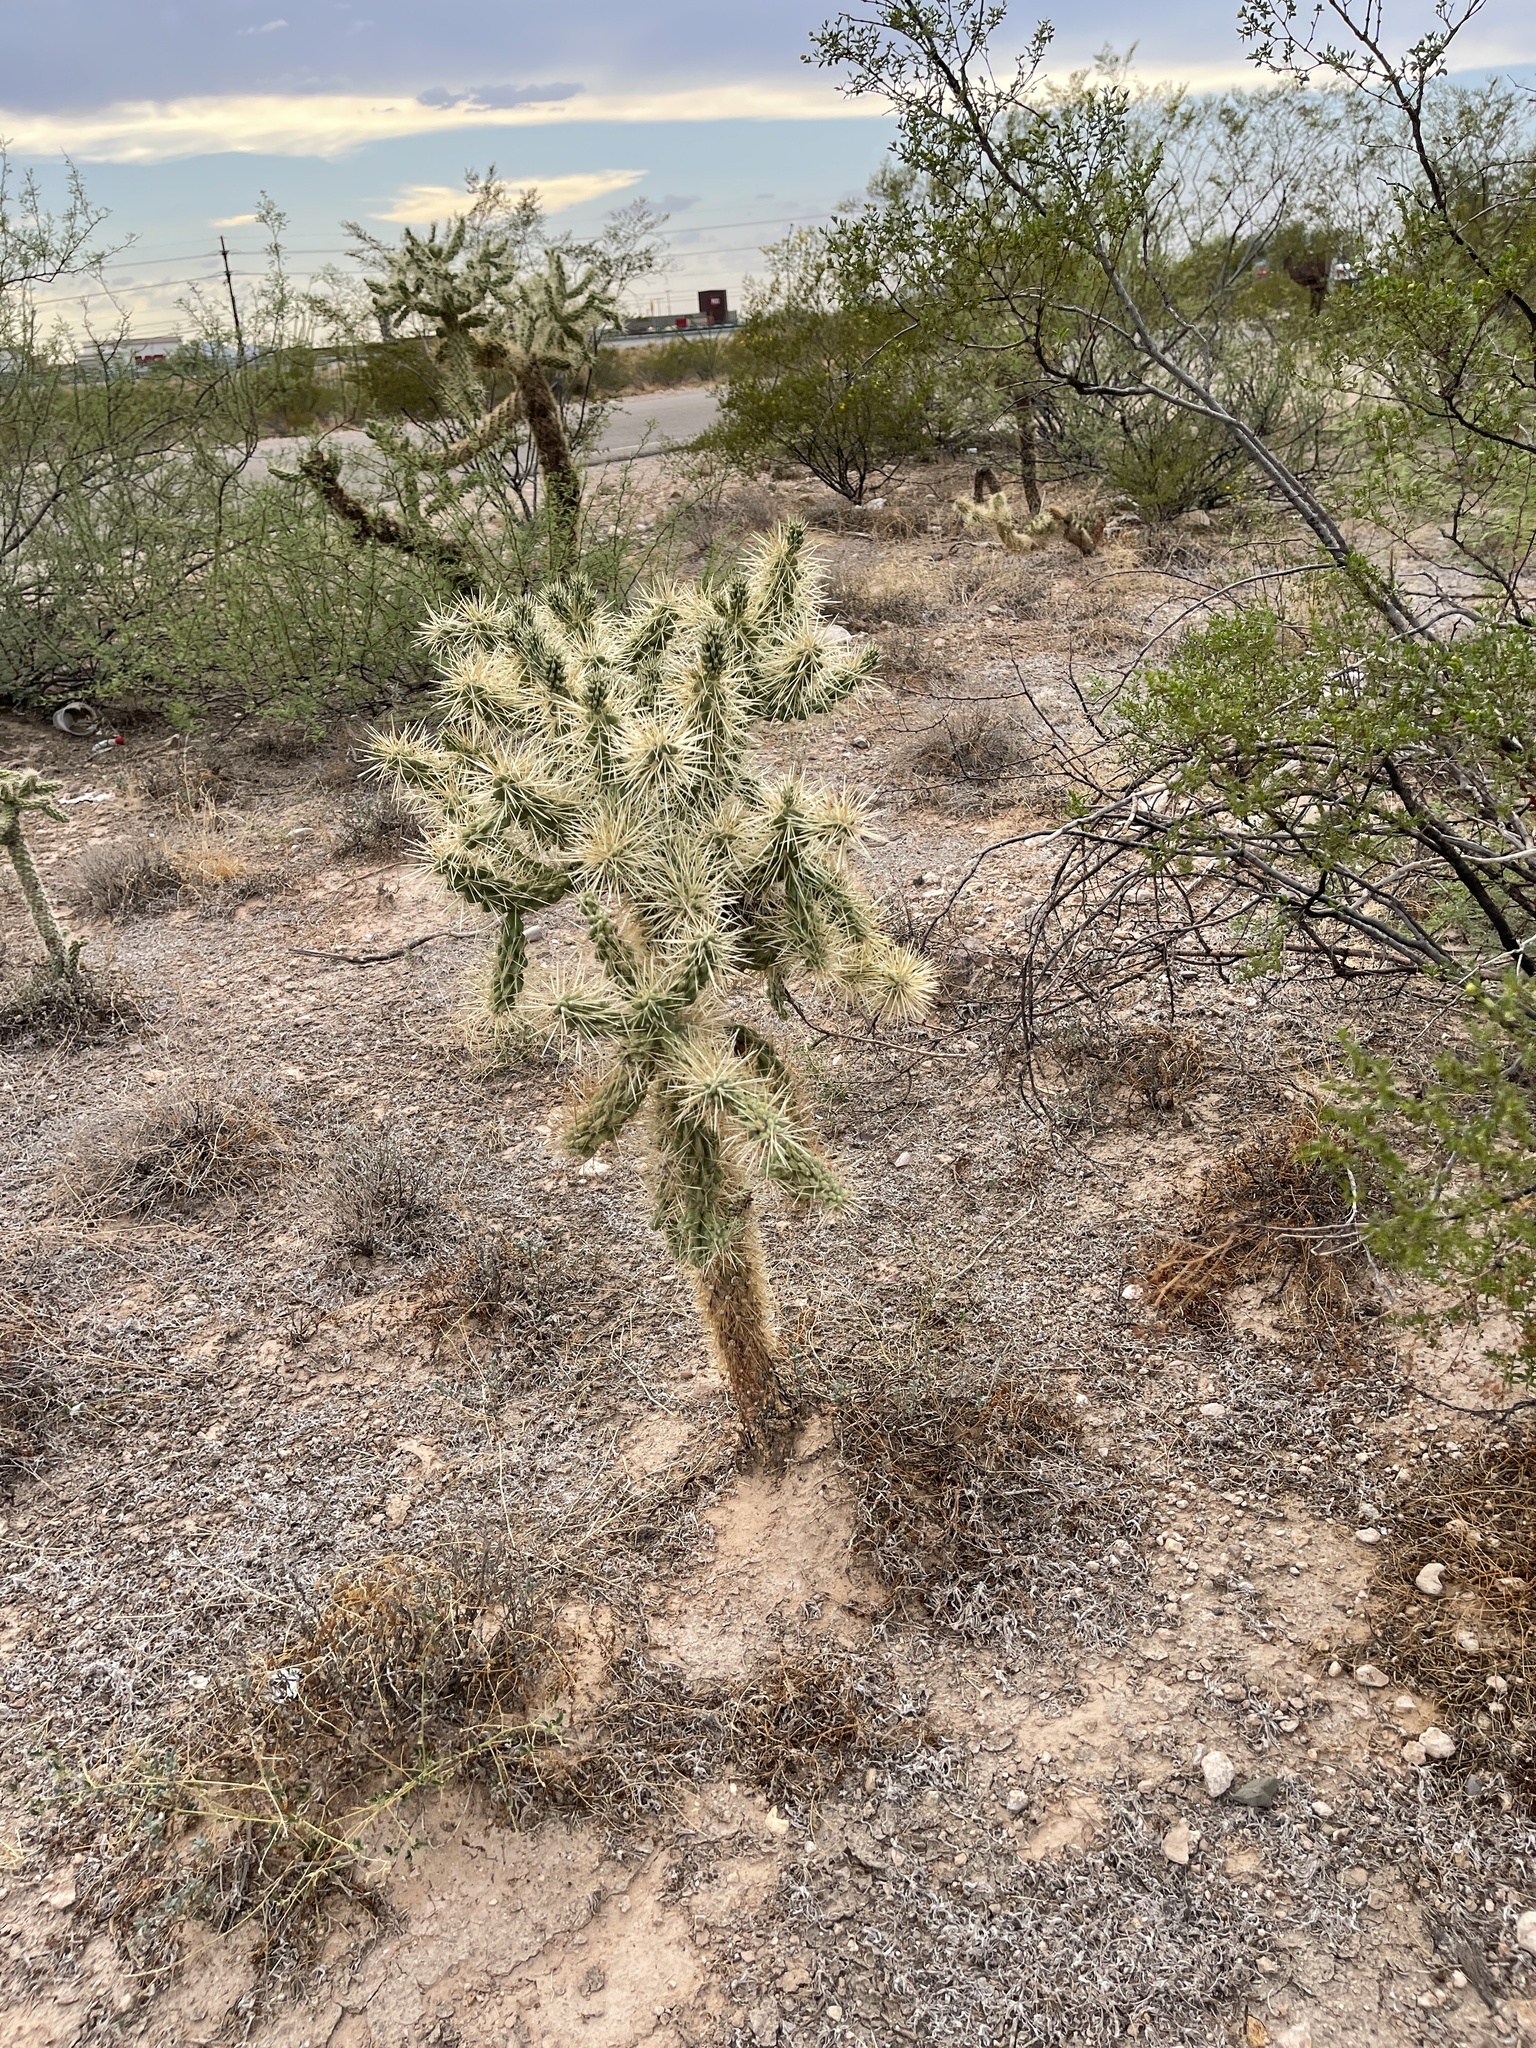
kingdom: Plantae
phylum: Tracheophyta
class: Magnoliopsida
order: Caryophyllales
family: Cactaceae
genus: Cylindropuntia
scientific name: Cylindropuntia fulgida
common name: Jumping cholla
